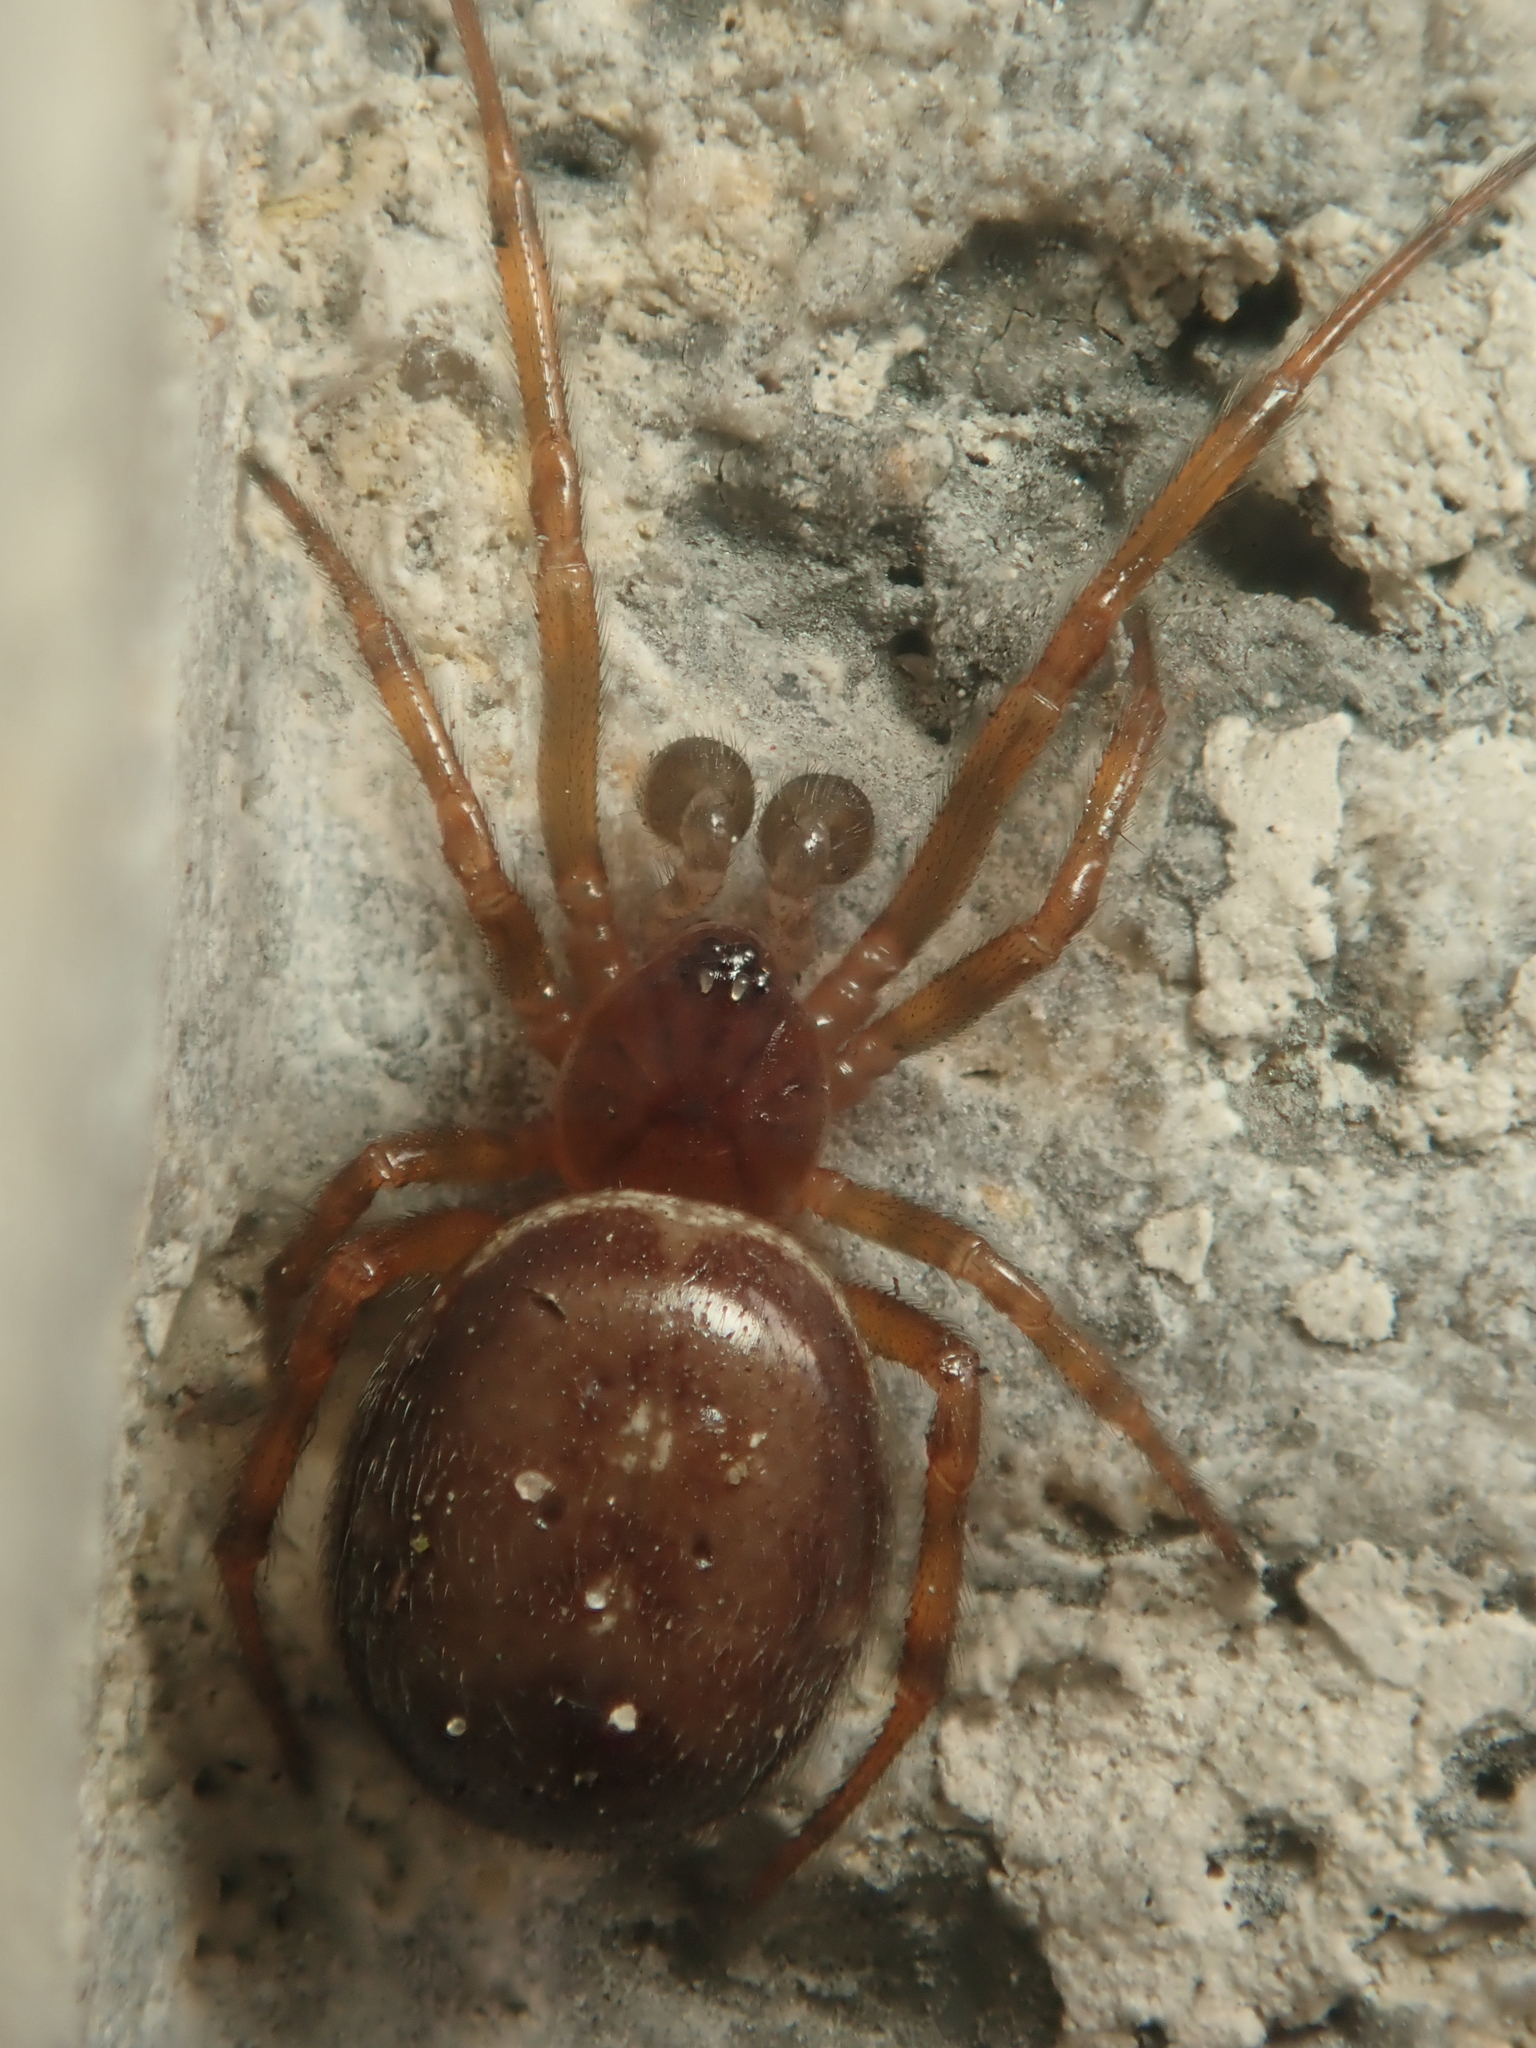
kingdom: Animalia
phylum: Arthropoda
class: Arachnida
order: Araneae
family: Theridiidae
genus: Steatoda
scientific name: Steatoda bipunctata
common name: False widow
